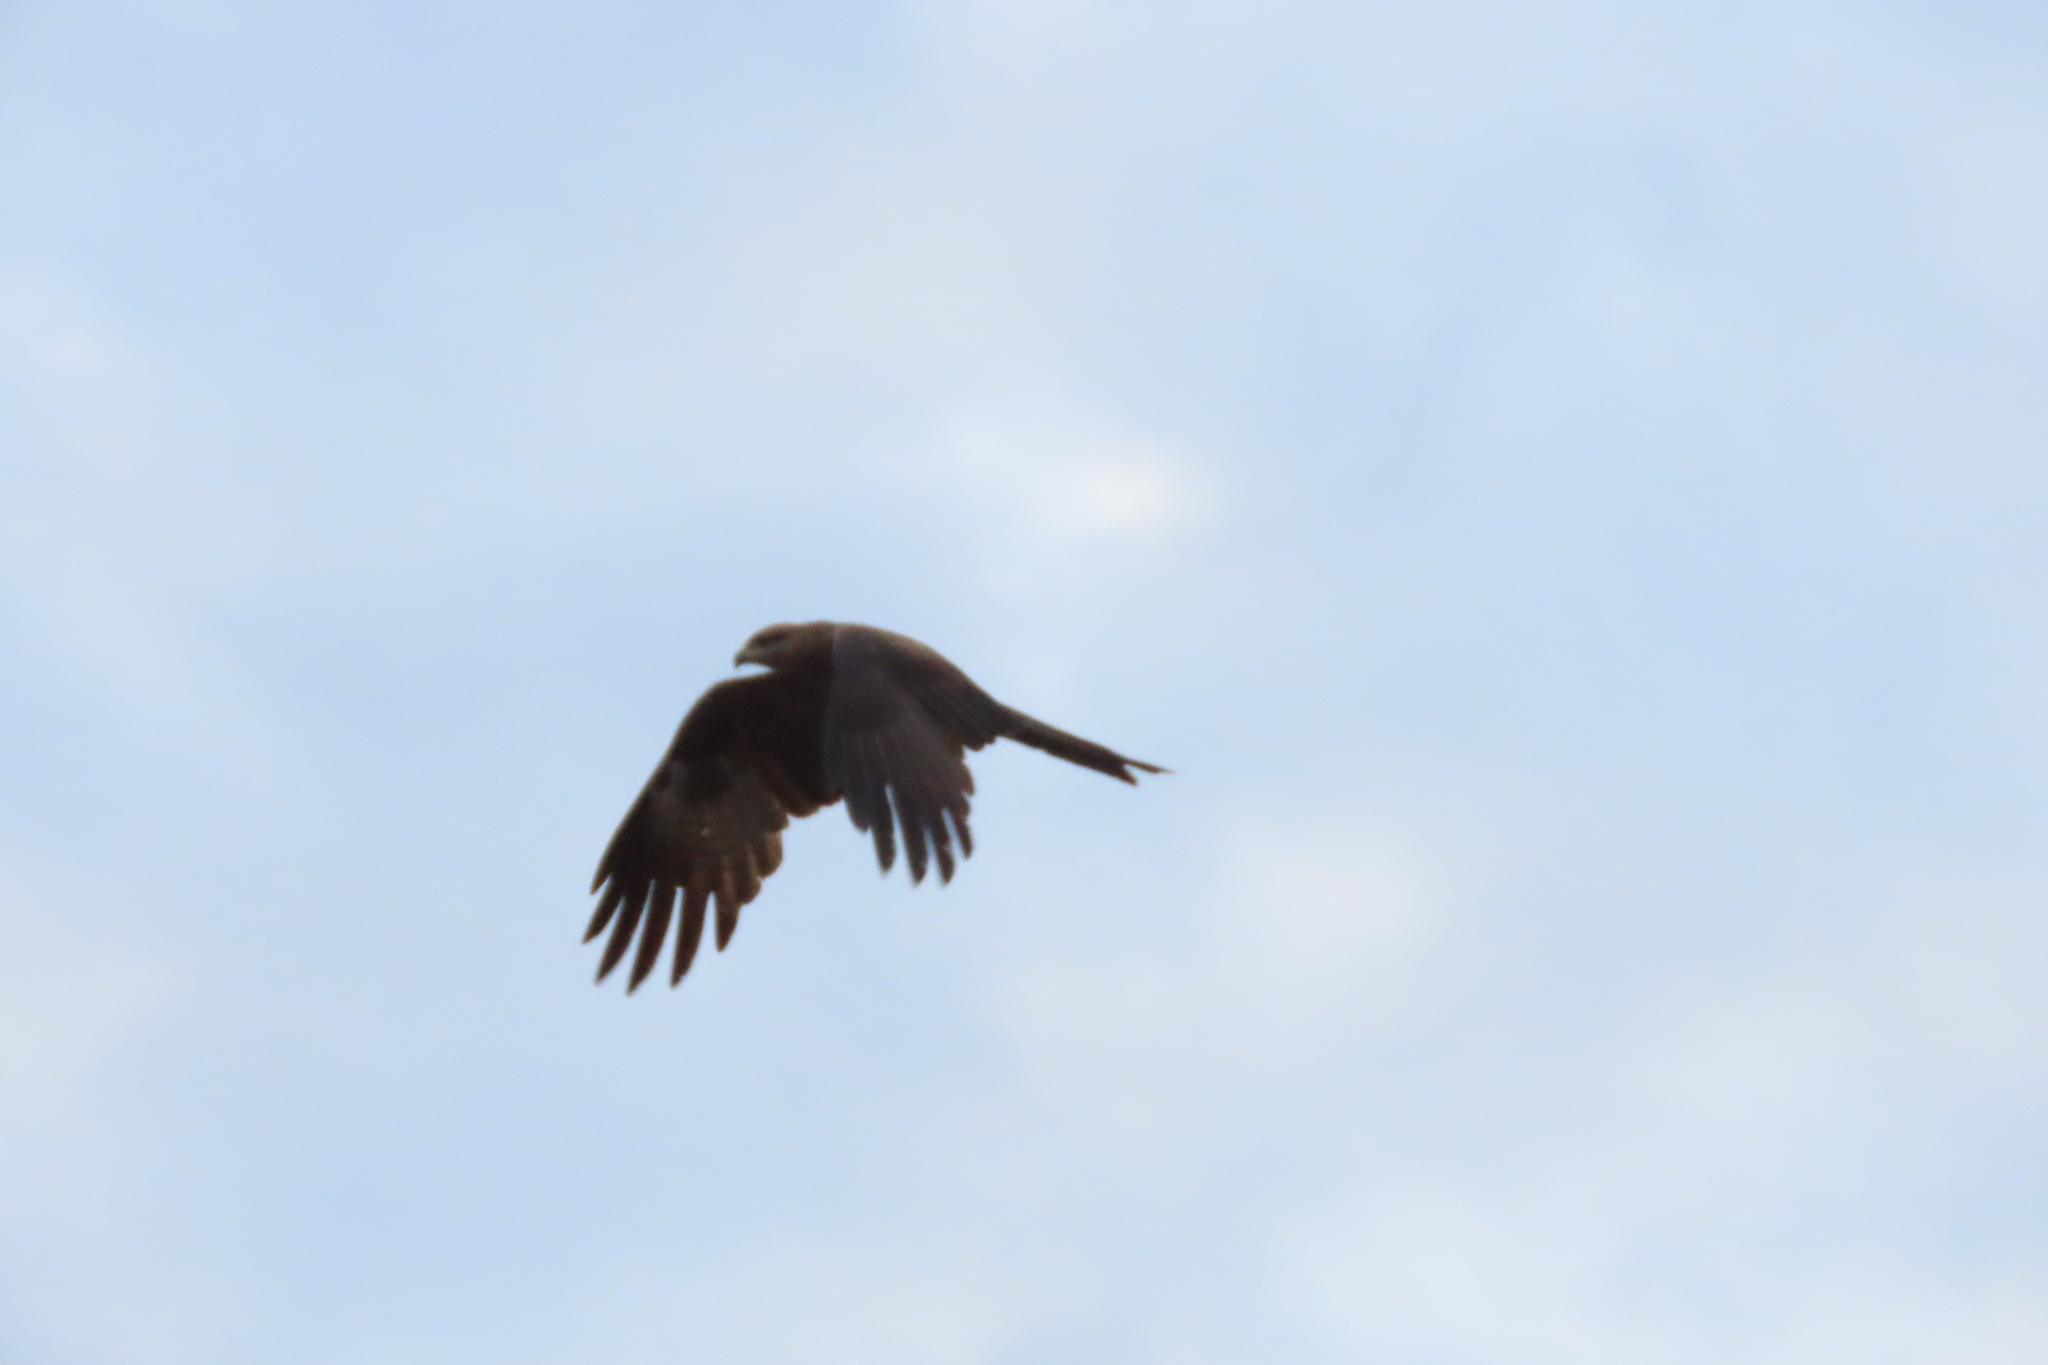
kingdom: Animalia
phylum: Chordata
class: Aves
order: Accipitriformes
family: Accipitridae
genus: Milvus
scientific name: Milvus migrans
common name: Black kite
